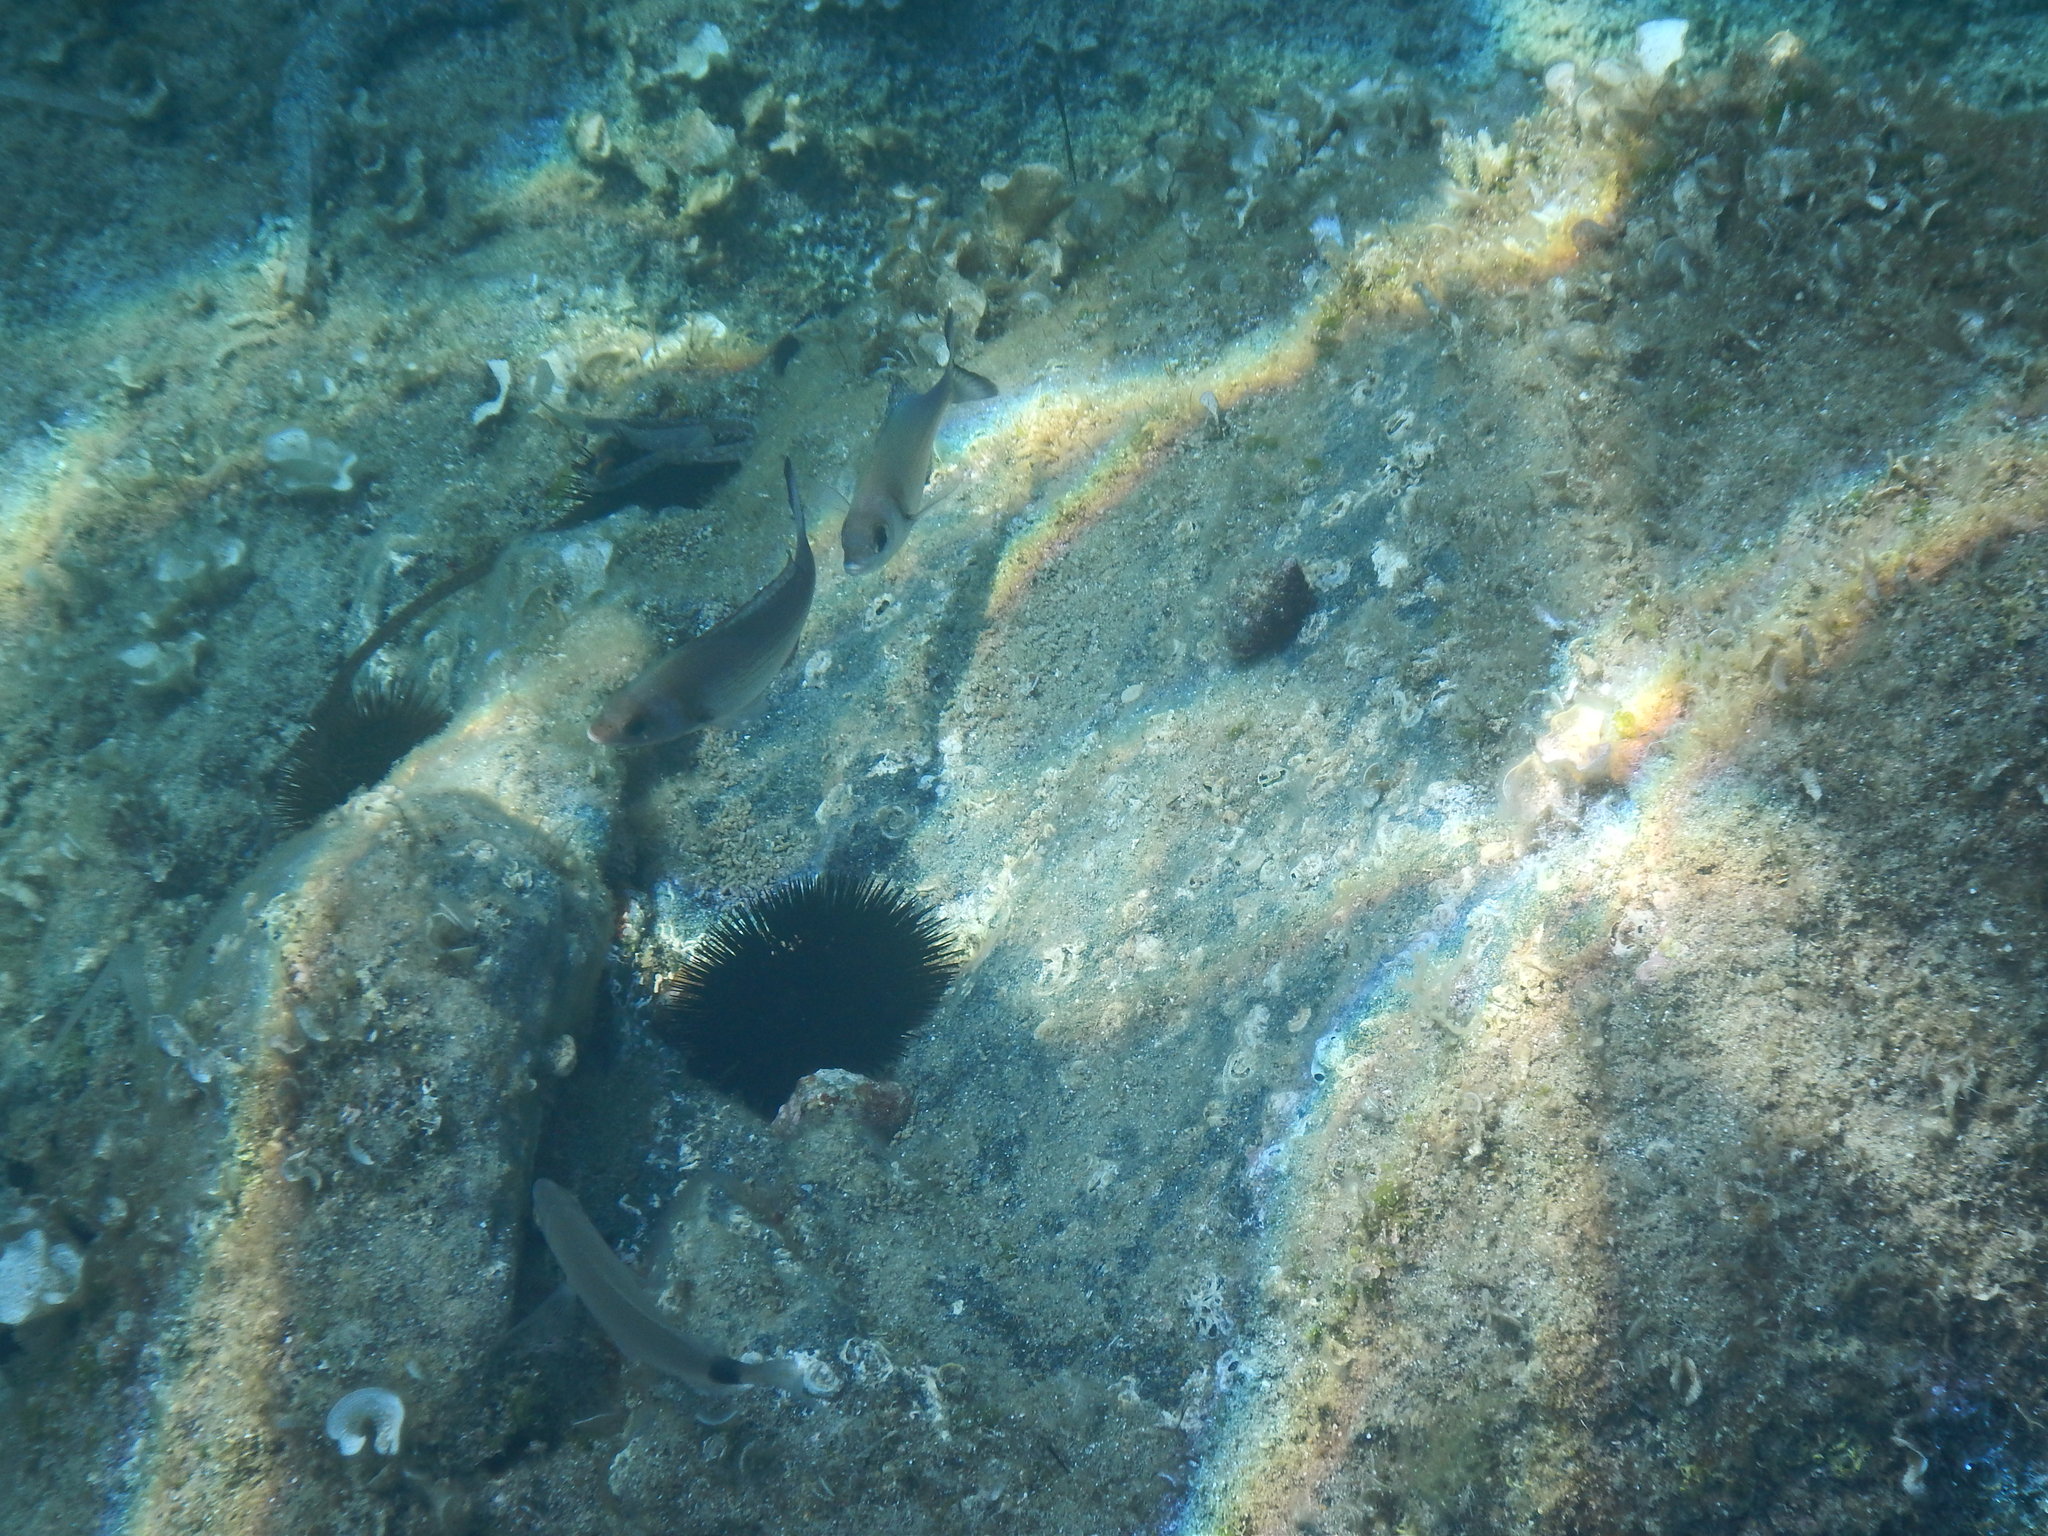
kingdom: Animalia
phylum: Chordata
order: Perciformes
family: Sparidae
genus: Spondyliosoma
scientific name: Spondyliosoma cantharus
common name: Black seabream
